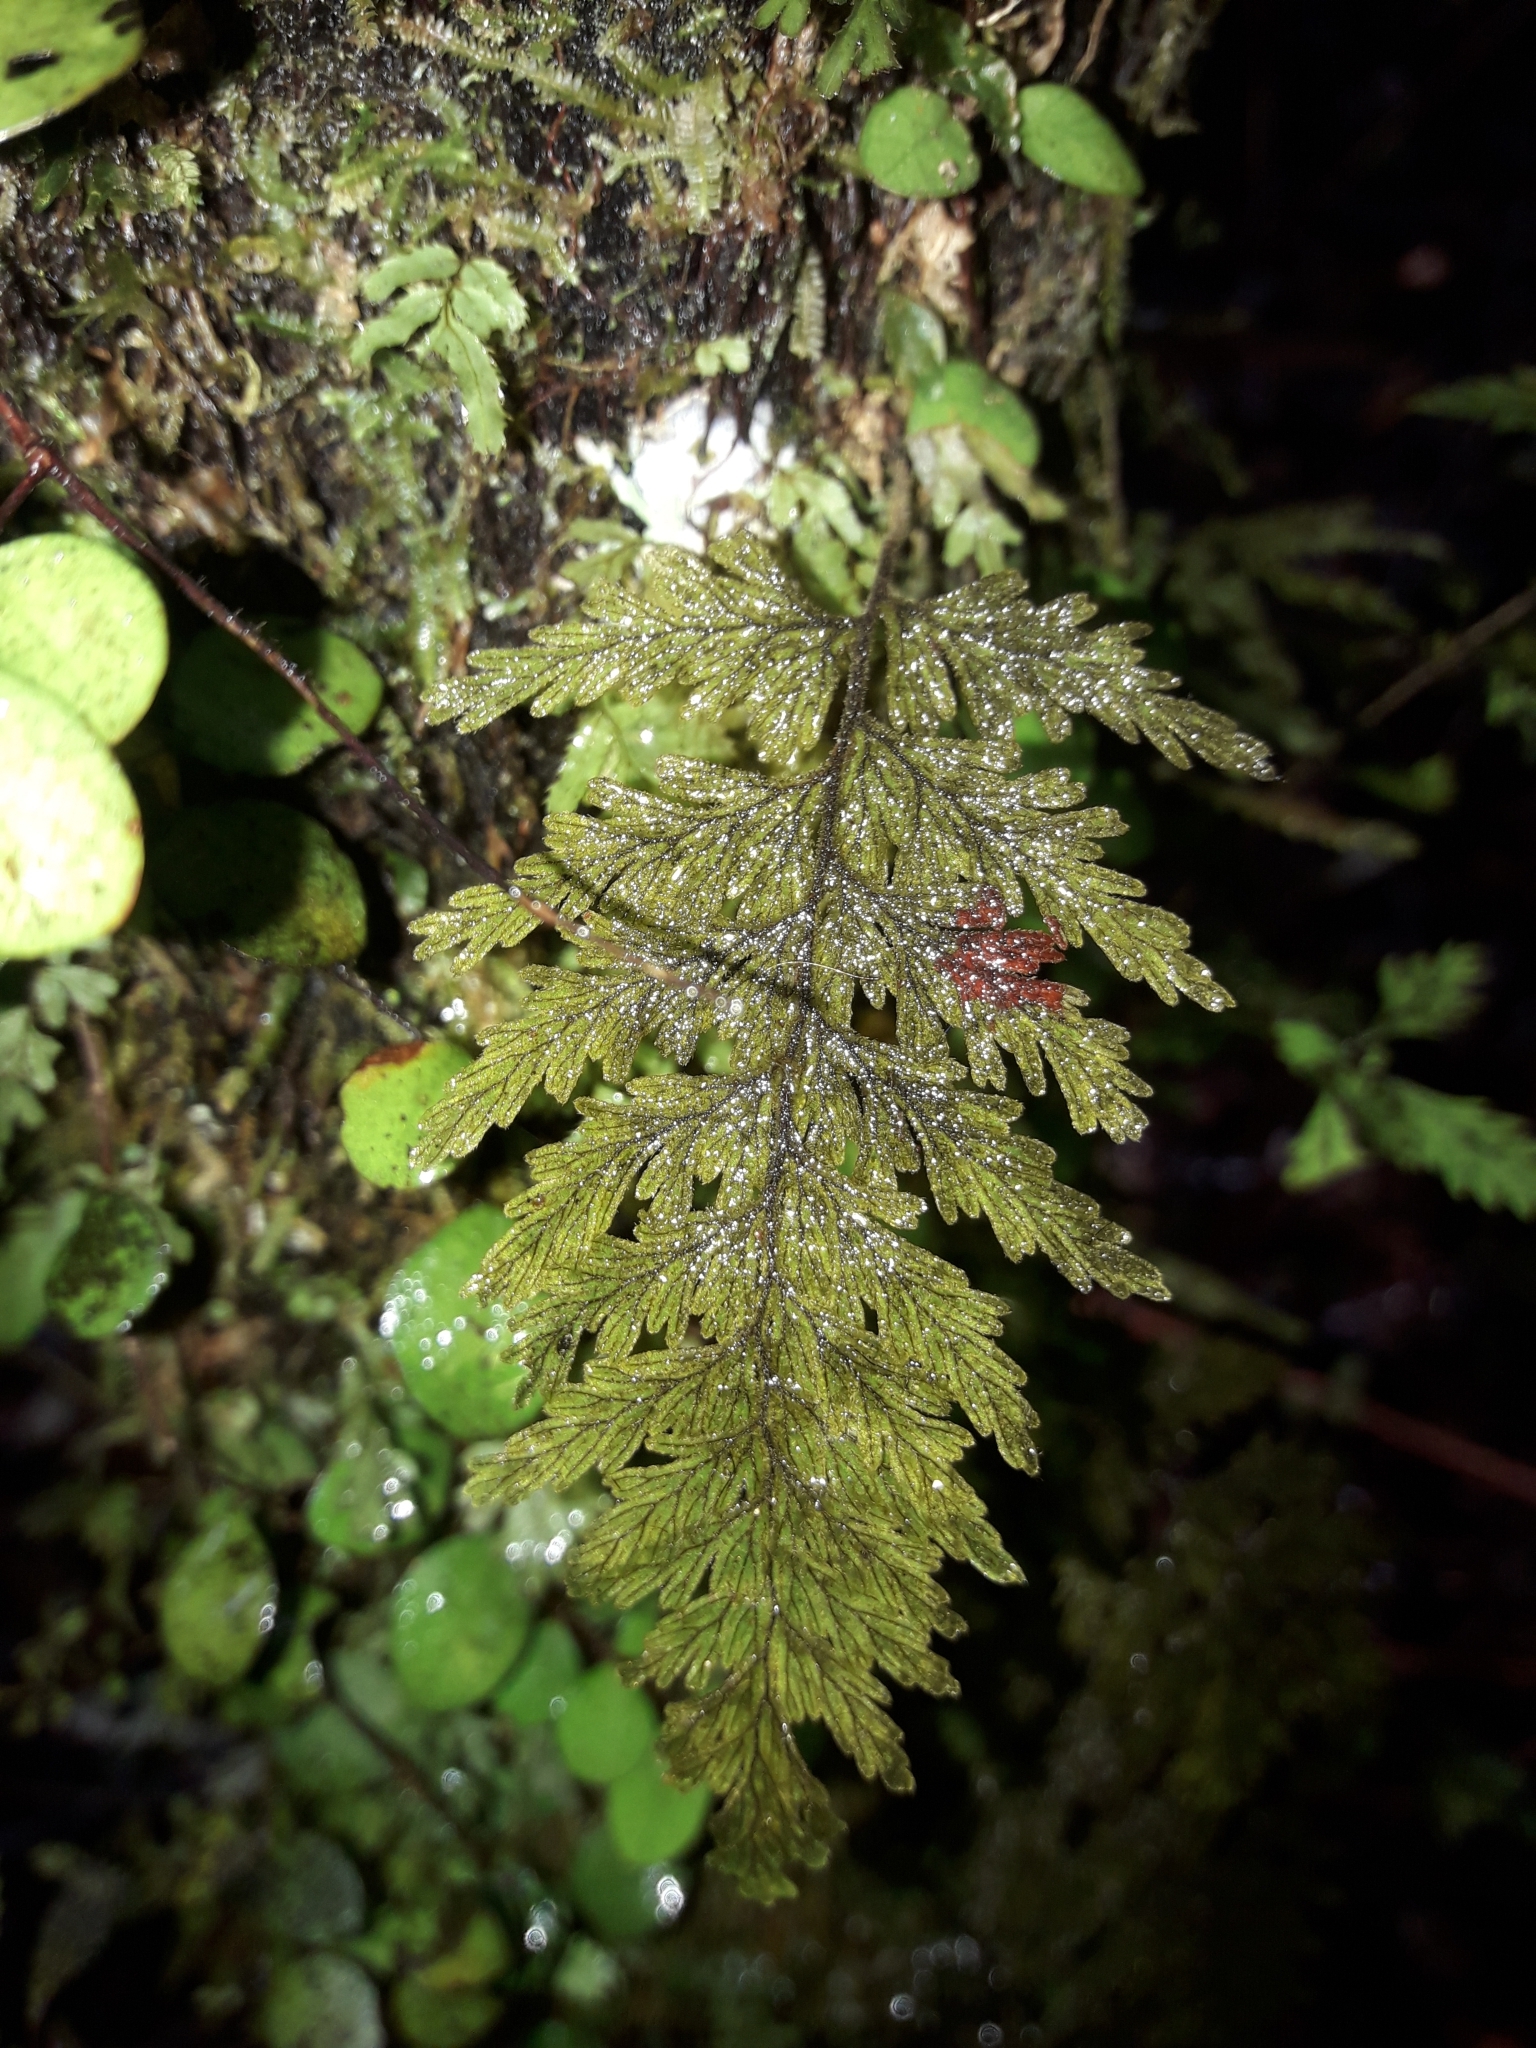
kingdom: Plantae
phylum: Tracheophyta
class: Polypodiopsida
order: Hymenophyllales
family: Hymenophyllaceae
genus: Hymenophyllum
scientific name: Hymenophyllum frankliniae
